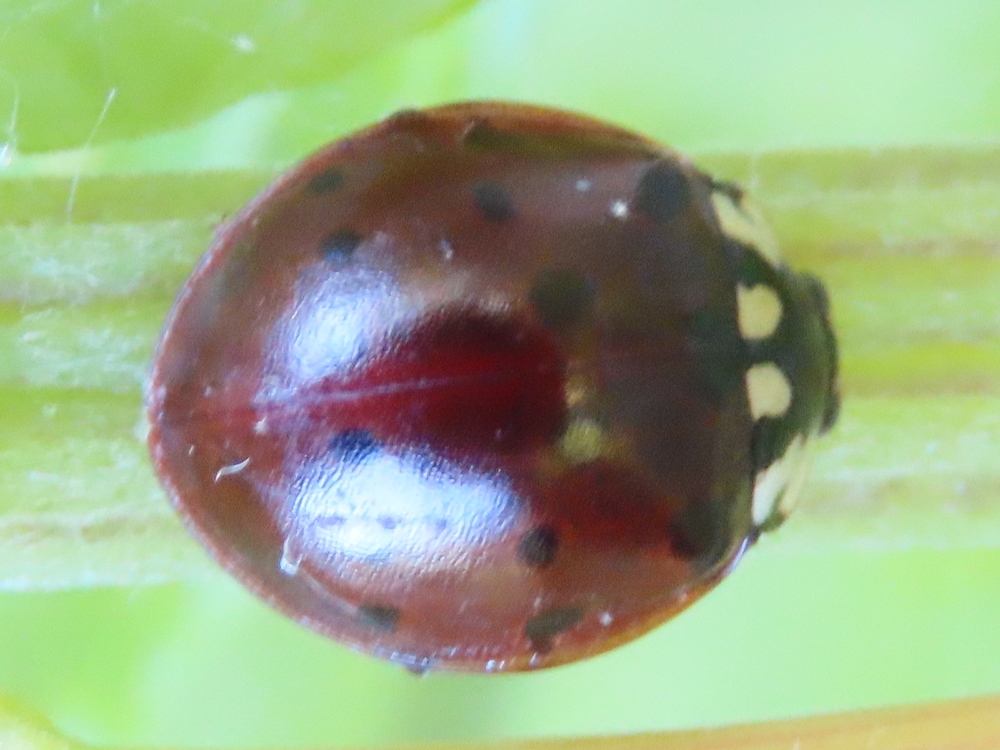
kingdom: Animalia
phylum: Arthropoda
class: Insecta
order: Coleoptera
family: Coccinellidae
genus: Anatis
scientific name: Anatis labiculata
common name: Fifteen-spotted lady beetle
